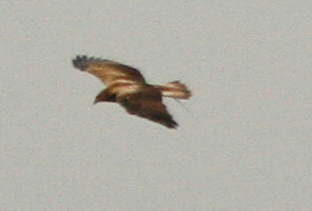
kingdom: Animalia
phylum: Chordata
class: Aves
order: Accipitriformes
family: Accipitridae
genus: Haliastur
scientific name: Haliastur sphenurus
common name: Whistling kite
